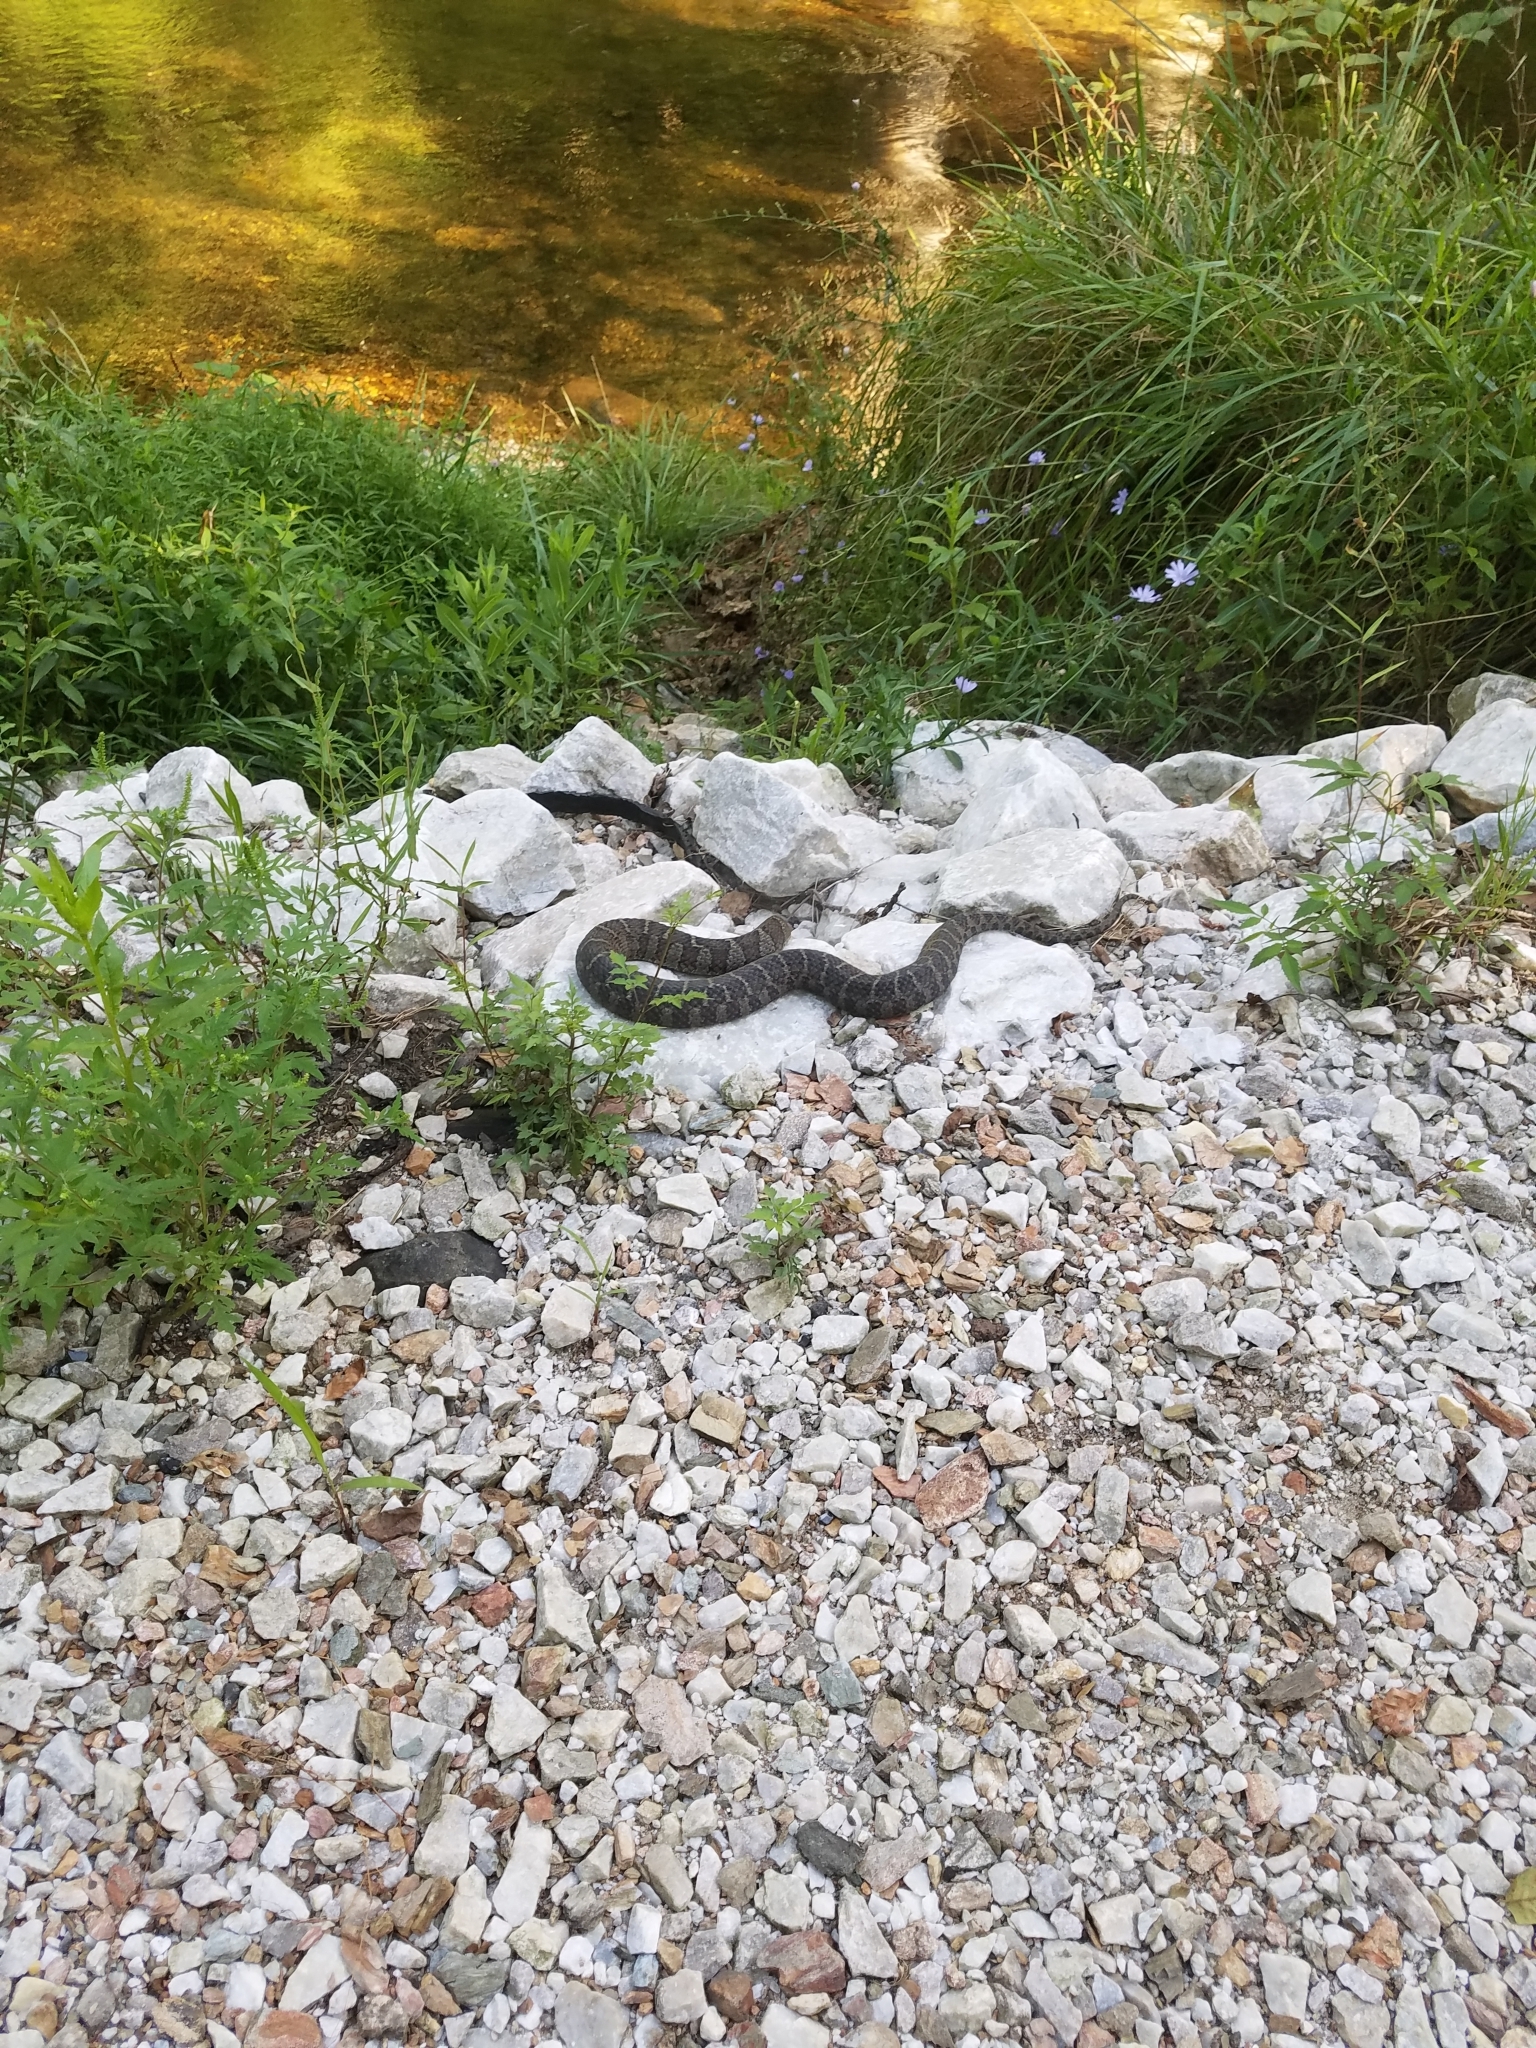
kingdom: Animalia
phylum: Chordata
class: Squamata
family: Colubridae
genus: Nerodia
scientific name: Nerodia sipedon
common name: Northern water snake
